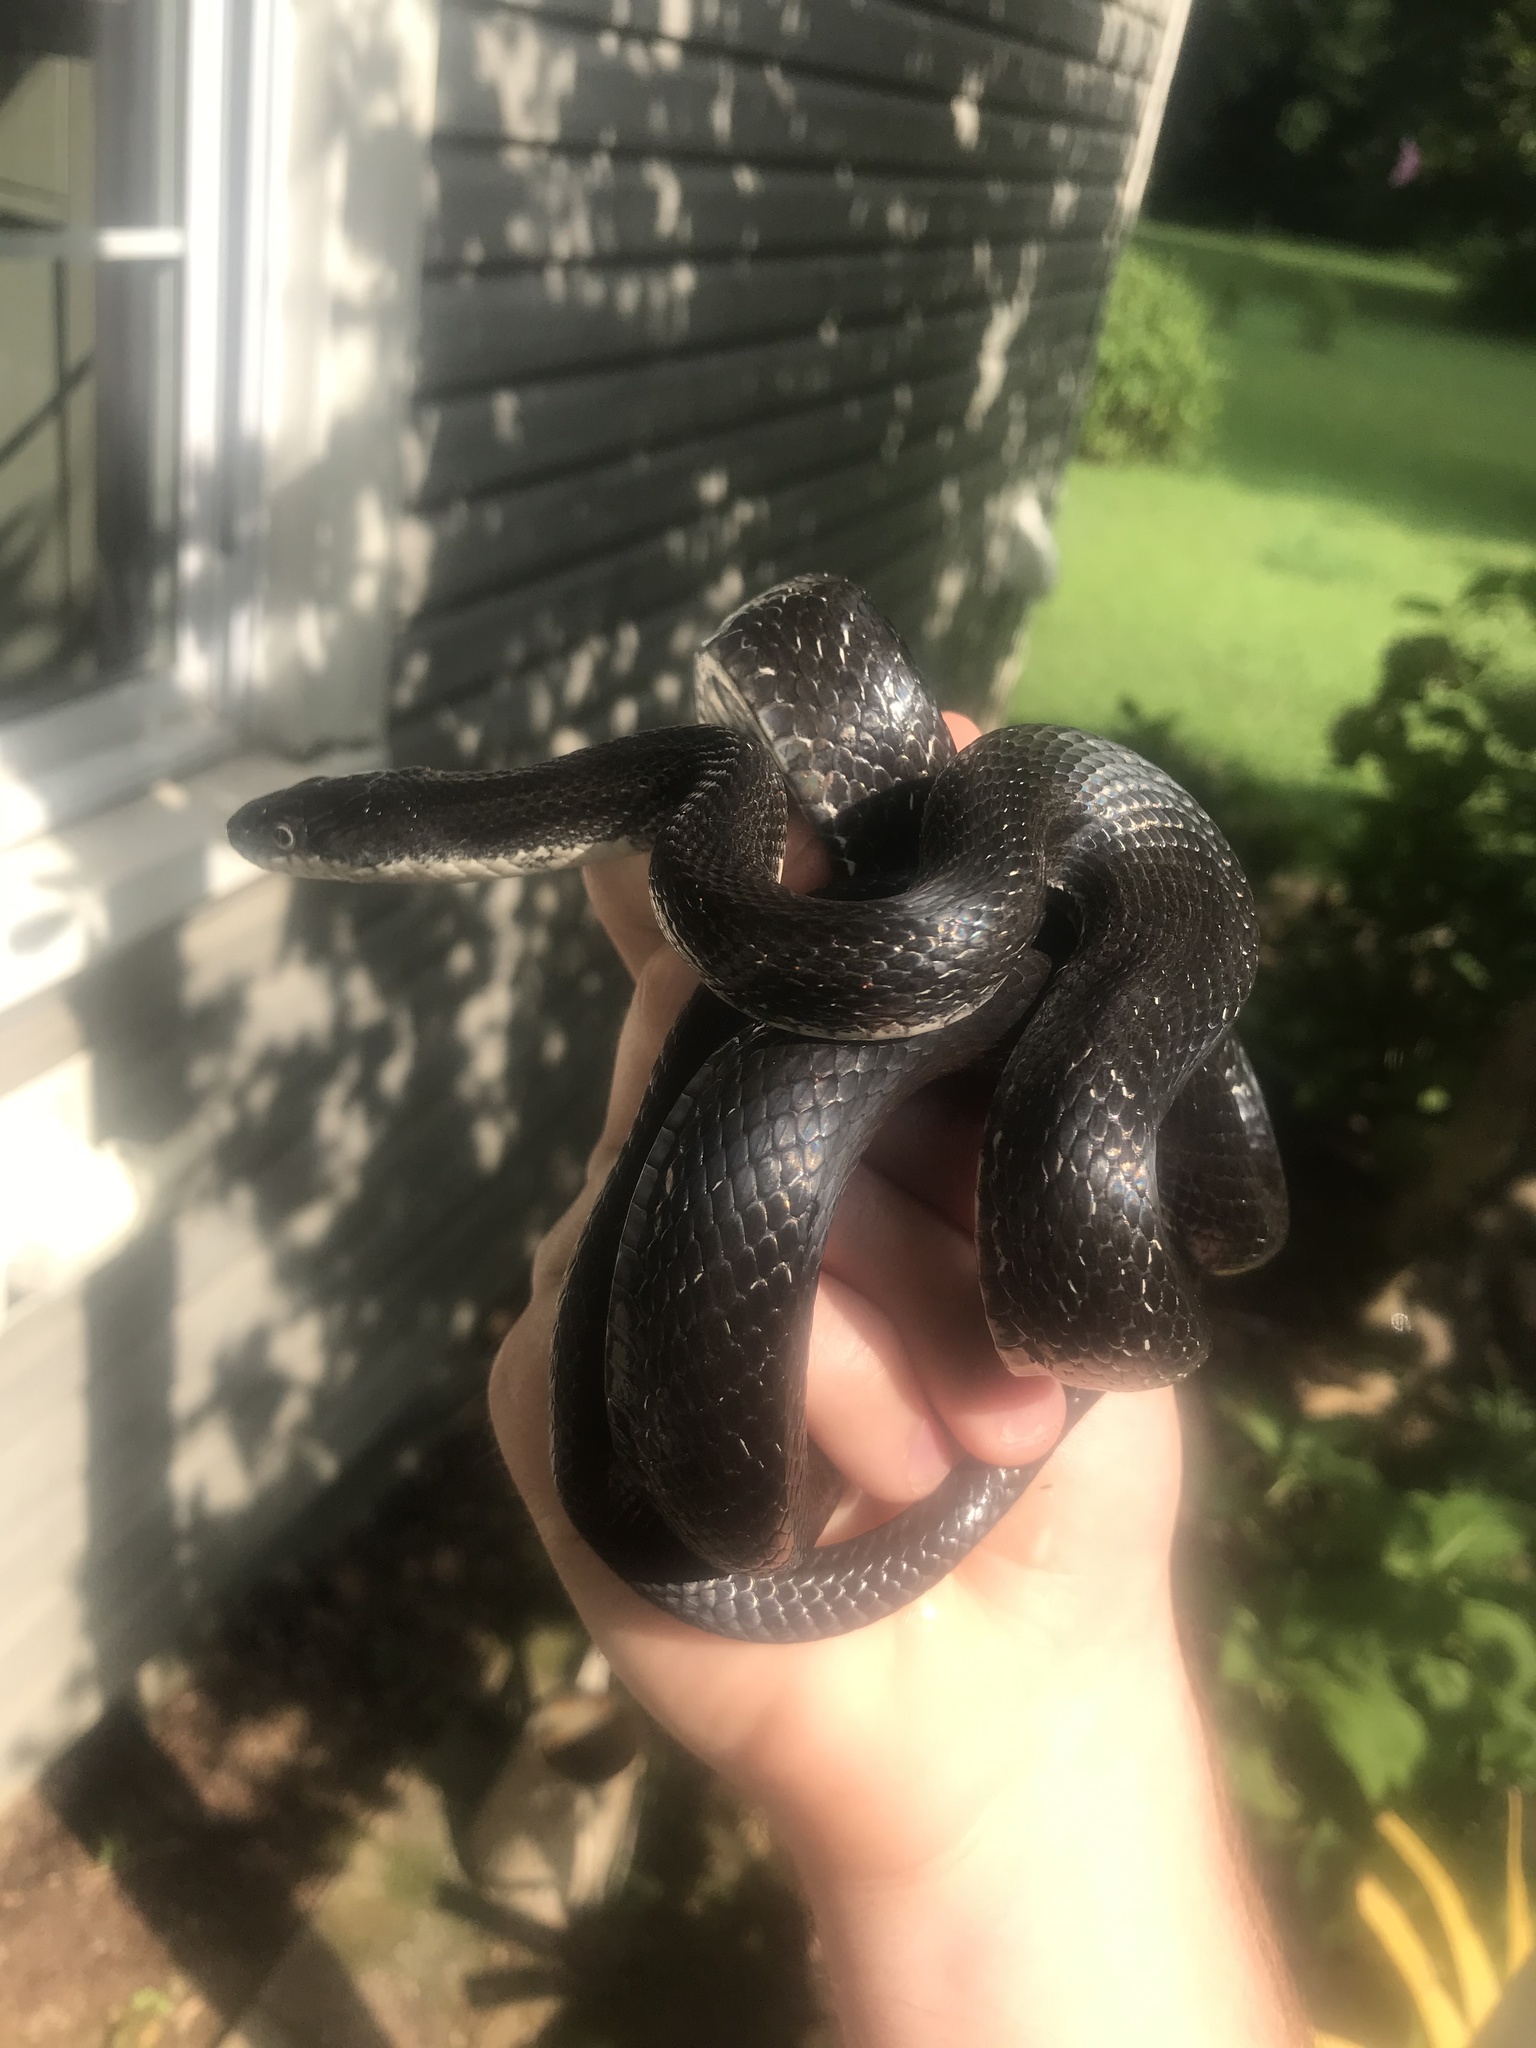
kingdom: Animalia
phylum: Chordata
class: Squamata
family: Colubridae
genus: Pantherophis
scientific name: Pantherophis alleghaniensis
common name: Eastern rat snake
